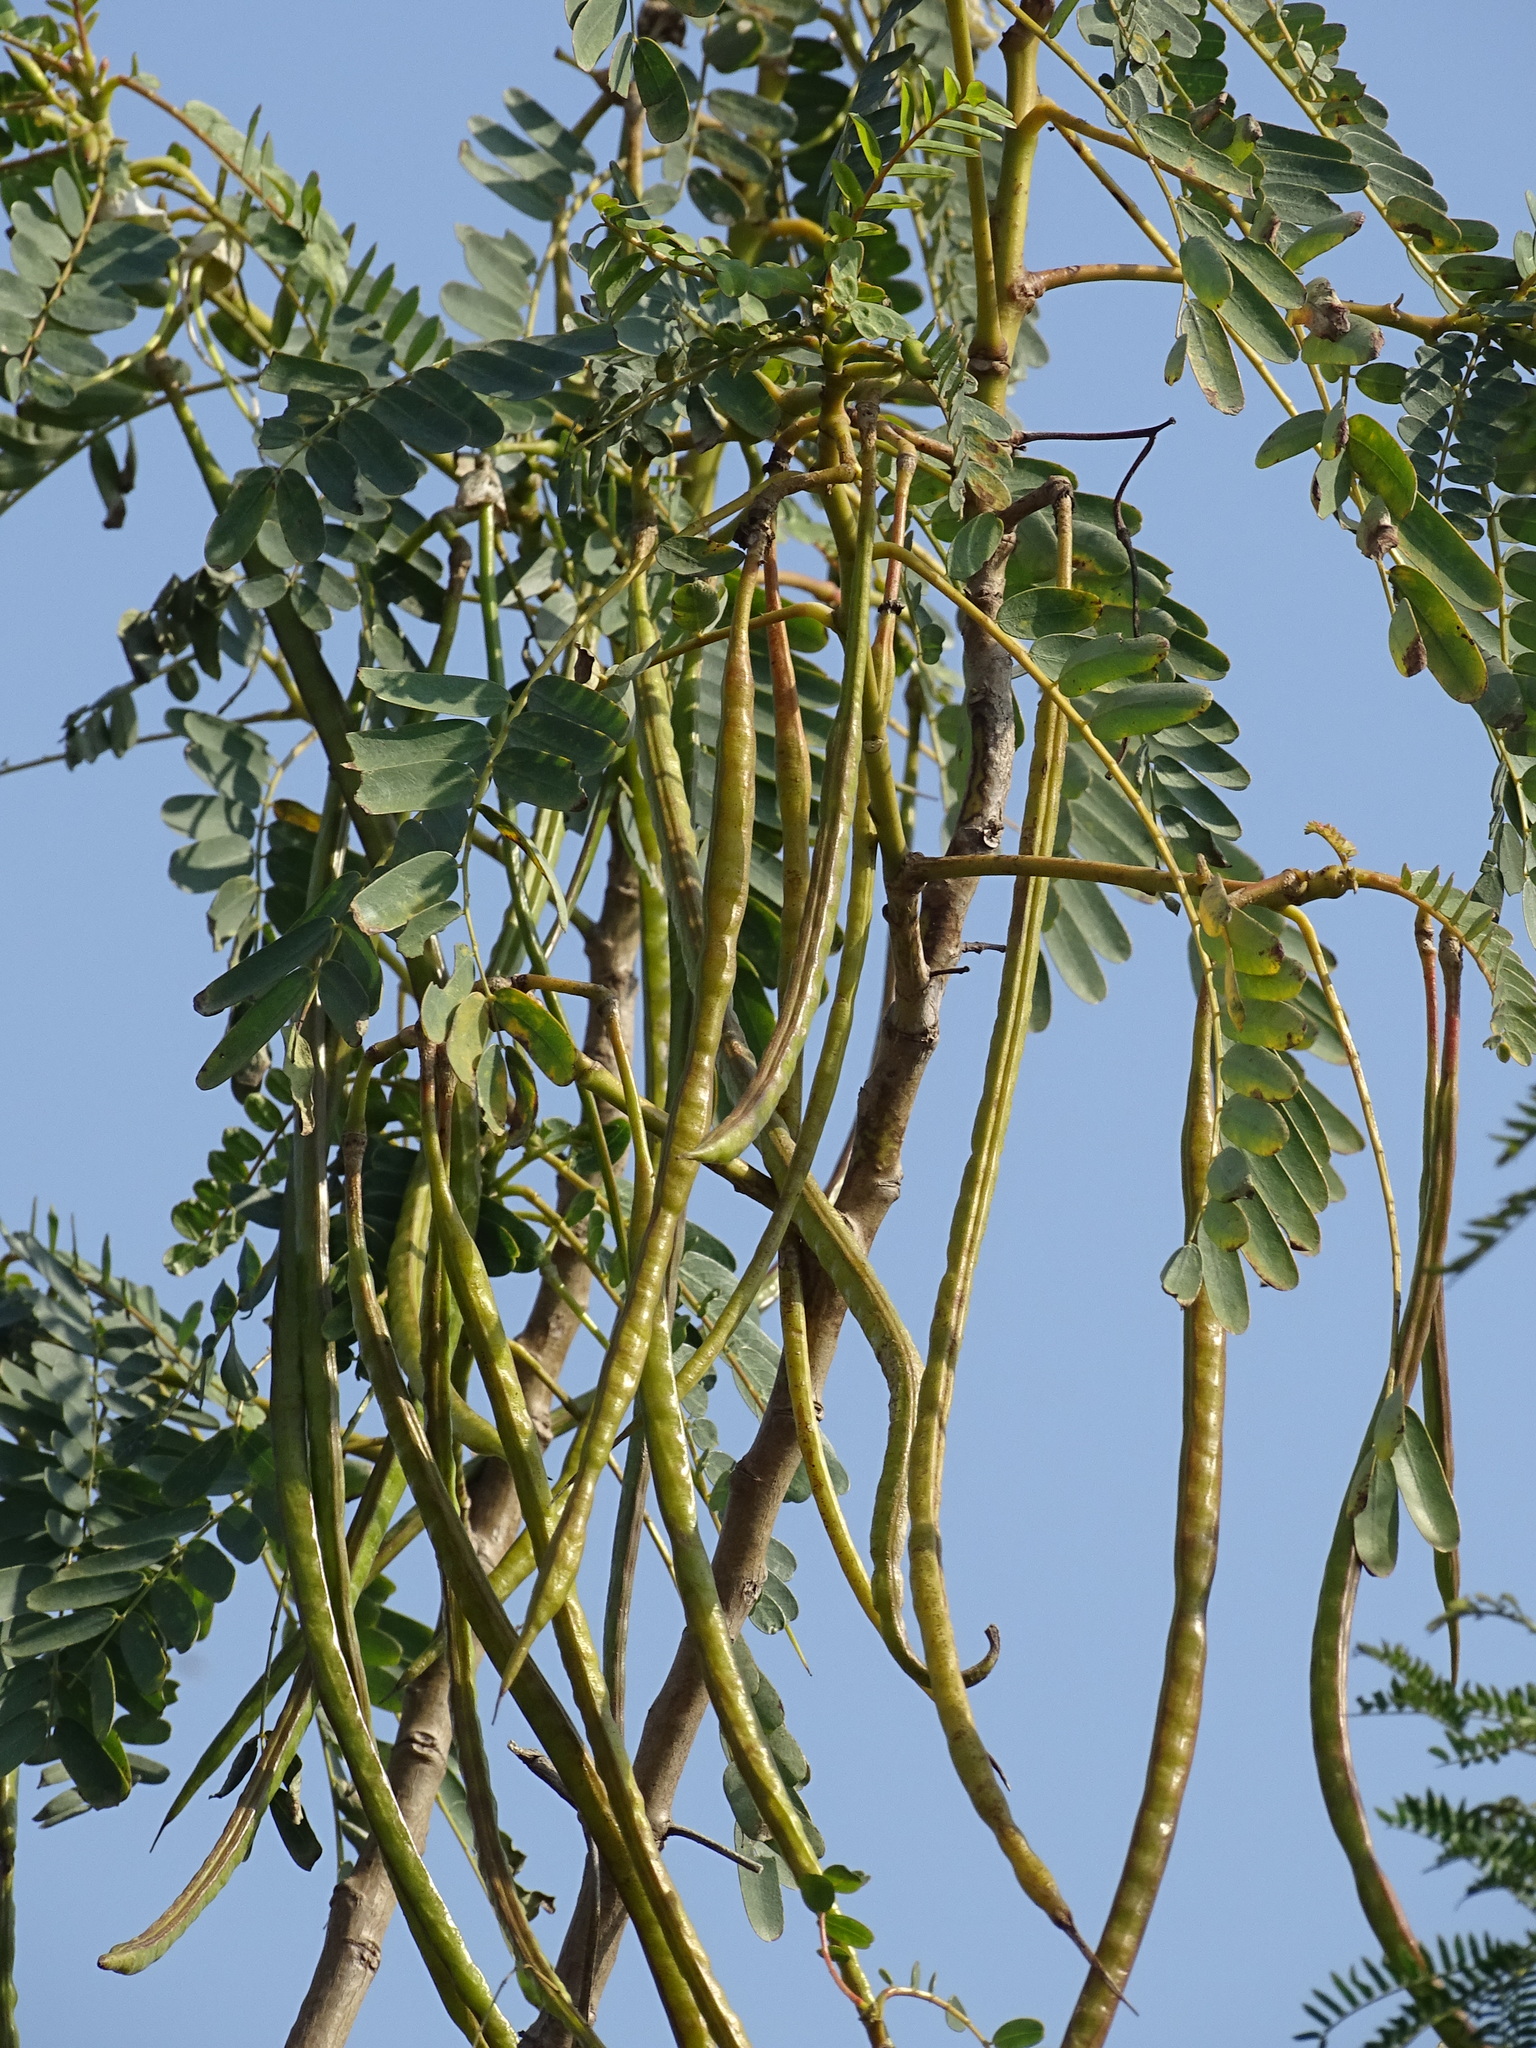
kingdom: Plantae
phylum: Tracheophyta
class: Magnoliopsida
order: Fabales
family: Fabaceae
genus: Sesbania
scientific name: Sesbania grandiflora
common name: Vegetable-hummingbird
